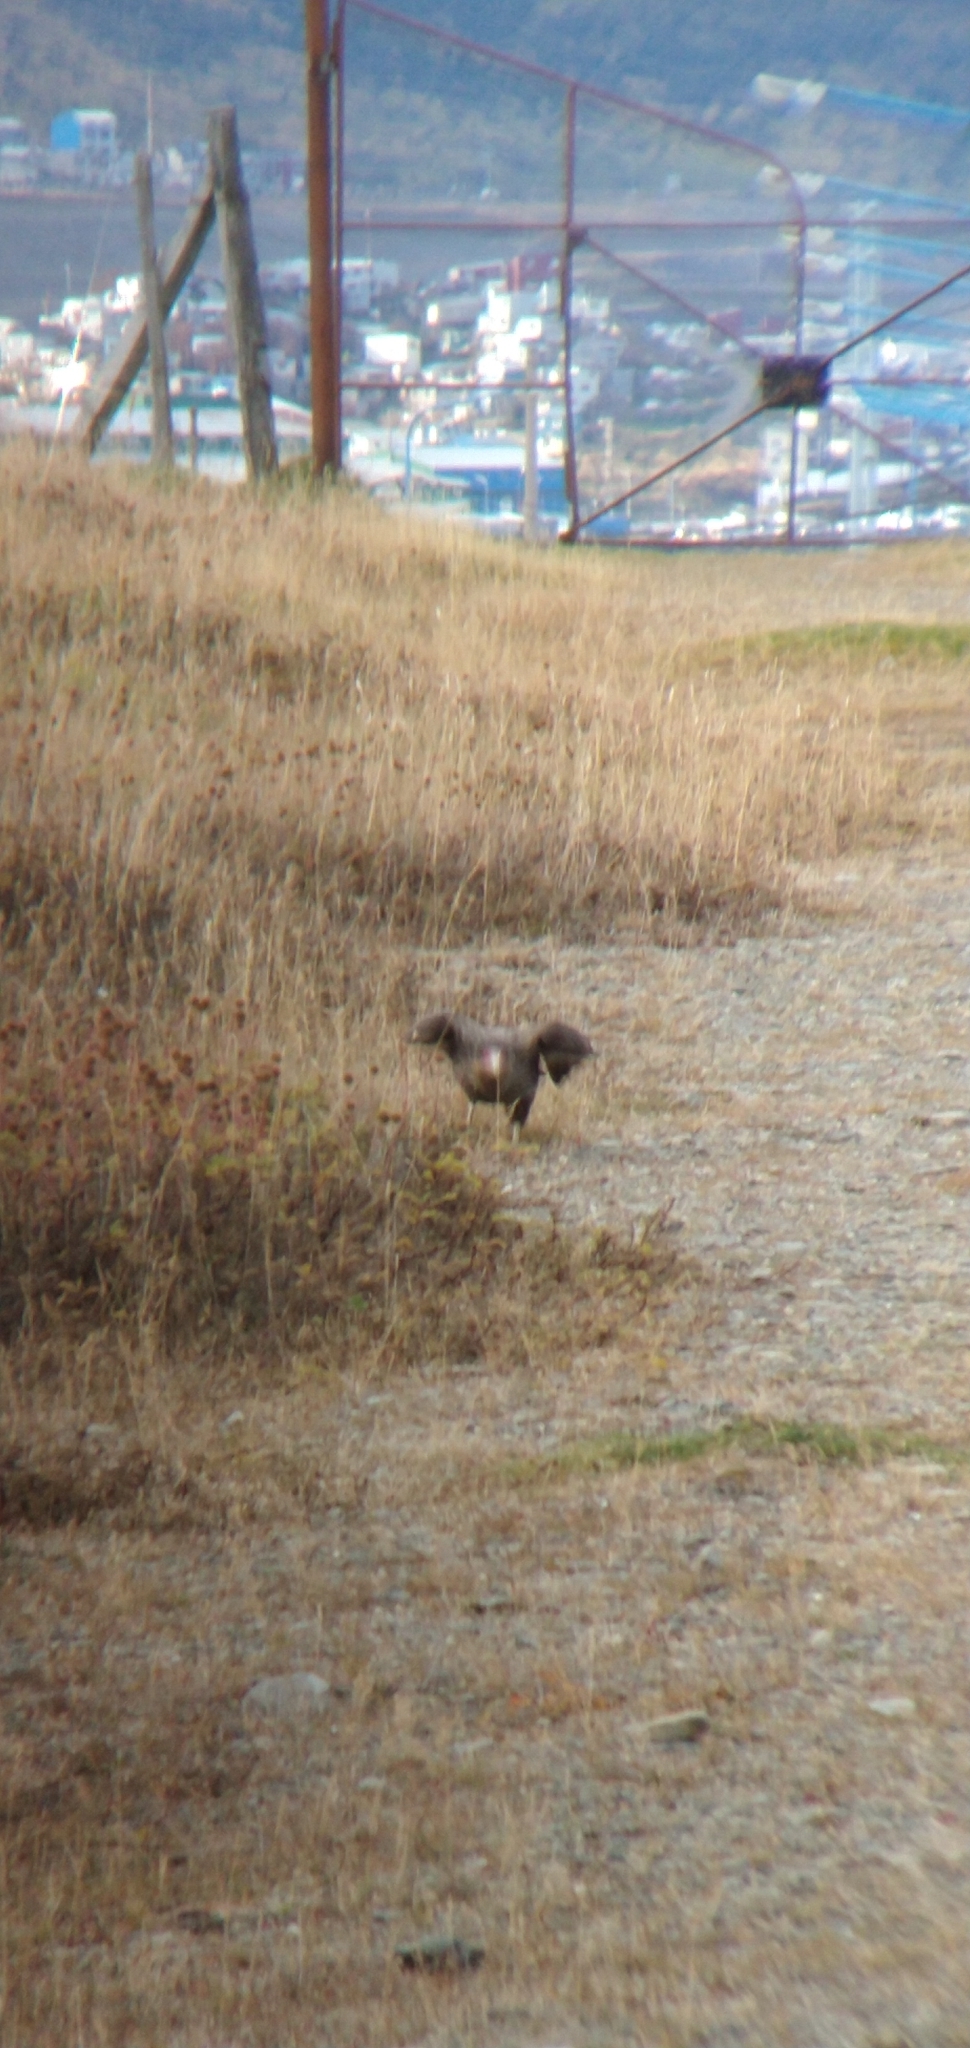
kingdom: Animalia
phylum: Chordata
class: Aves
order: Falconiformes
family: Falconidae
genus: Caracara
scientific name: Caracara plancus
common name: Southern caracara
